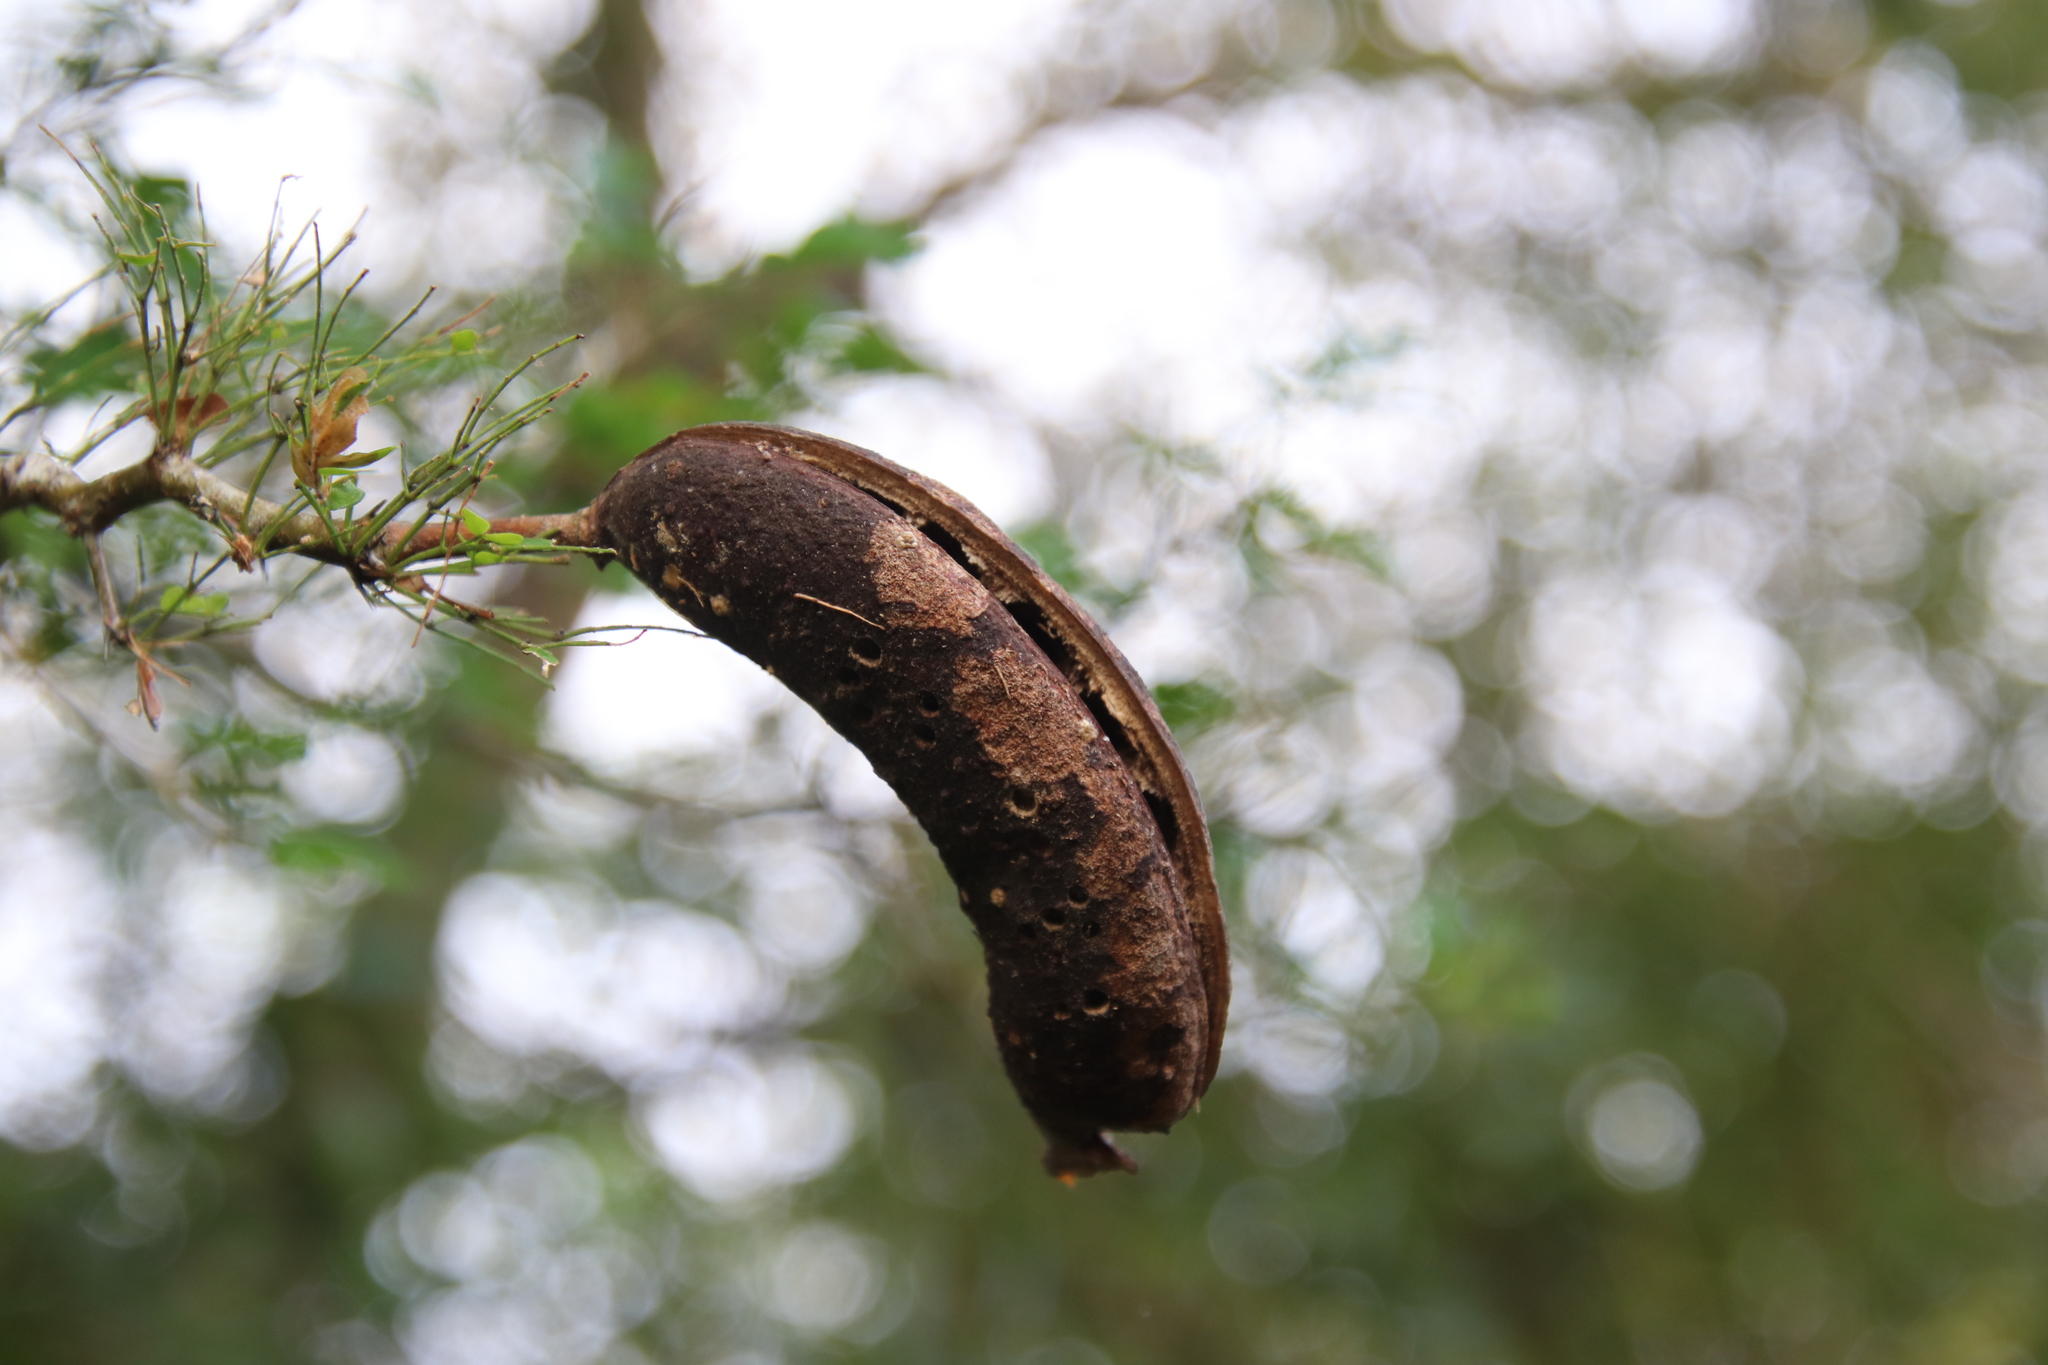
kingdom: Plantae
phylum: Tracheophyta
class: Magnoliopsida
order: Fabales
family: Fabaceae
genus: Ebenopsis
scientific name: Ebenopsis ebano
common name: Ebony blackbead
